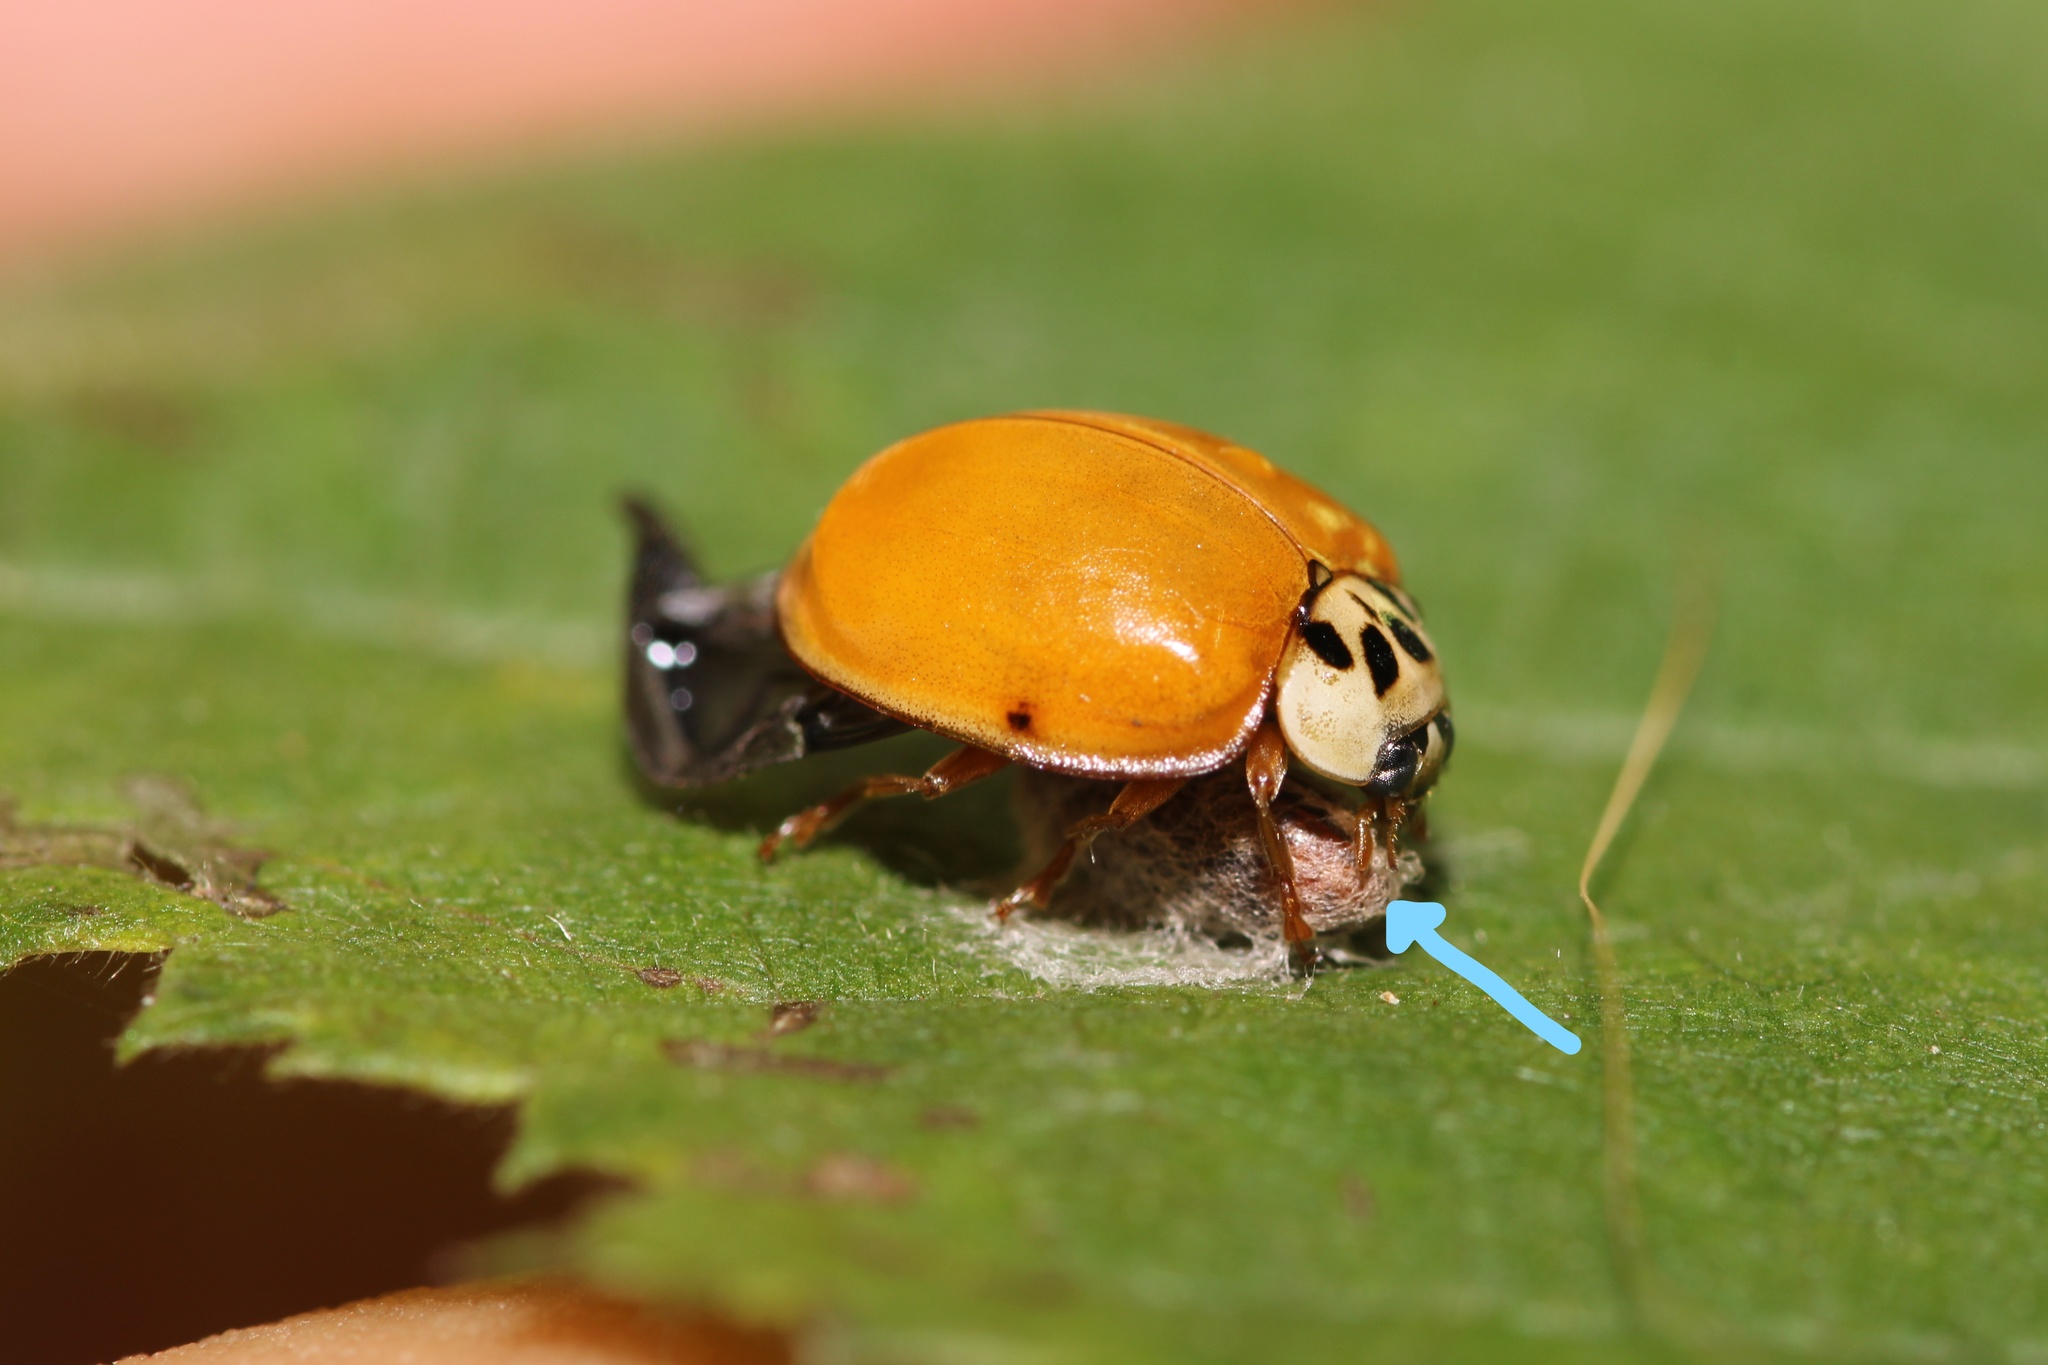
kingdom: Viruses
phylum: Pisuviricota
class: Pisoniviricetes
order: Picornavirales
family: Iflaviridae
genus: Iflavirus
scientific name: Iflavirus dinococcinellae
